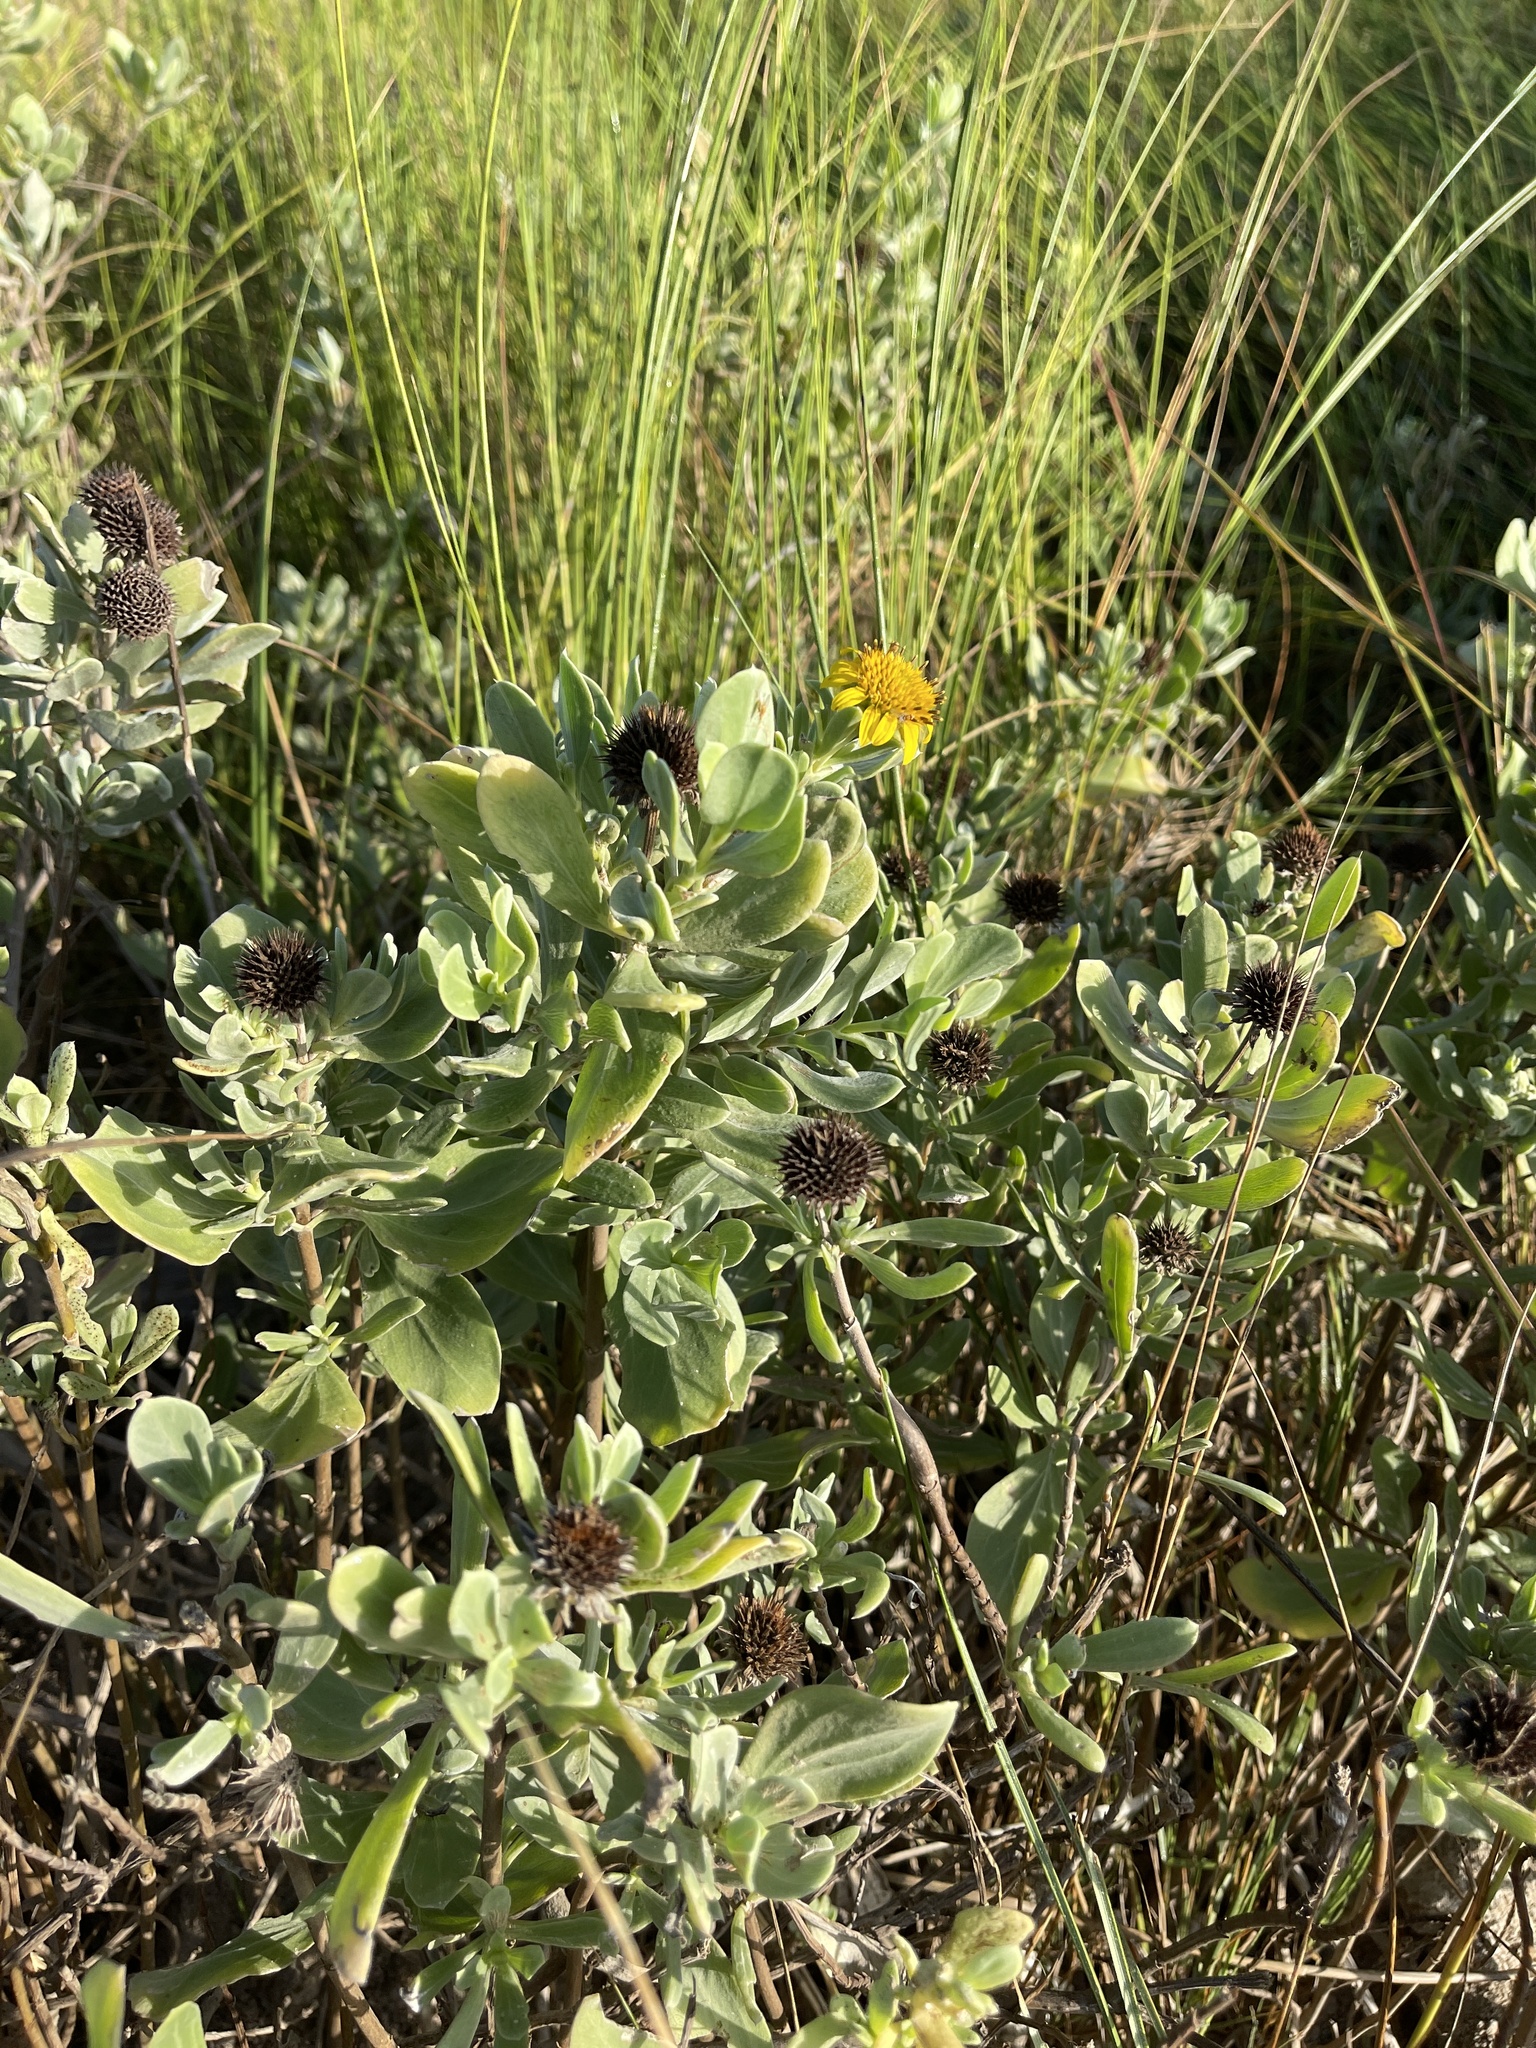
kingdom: Plantae
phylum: Tracheophyta
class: Magnoliopsida
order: Asterales
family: Asteraceae
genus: Borrichia
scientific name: Borrichia frutescens
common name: Sea oxeye
